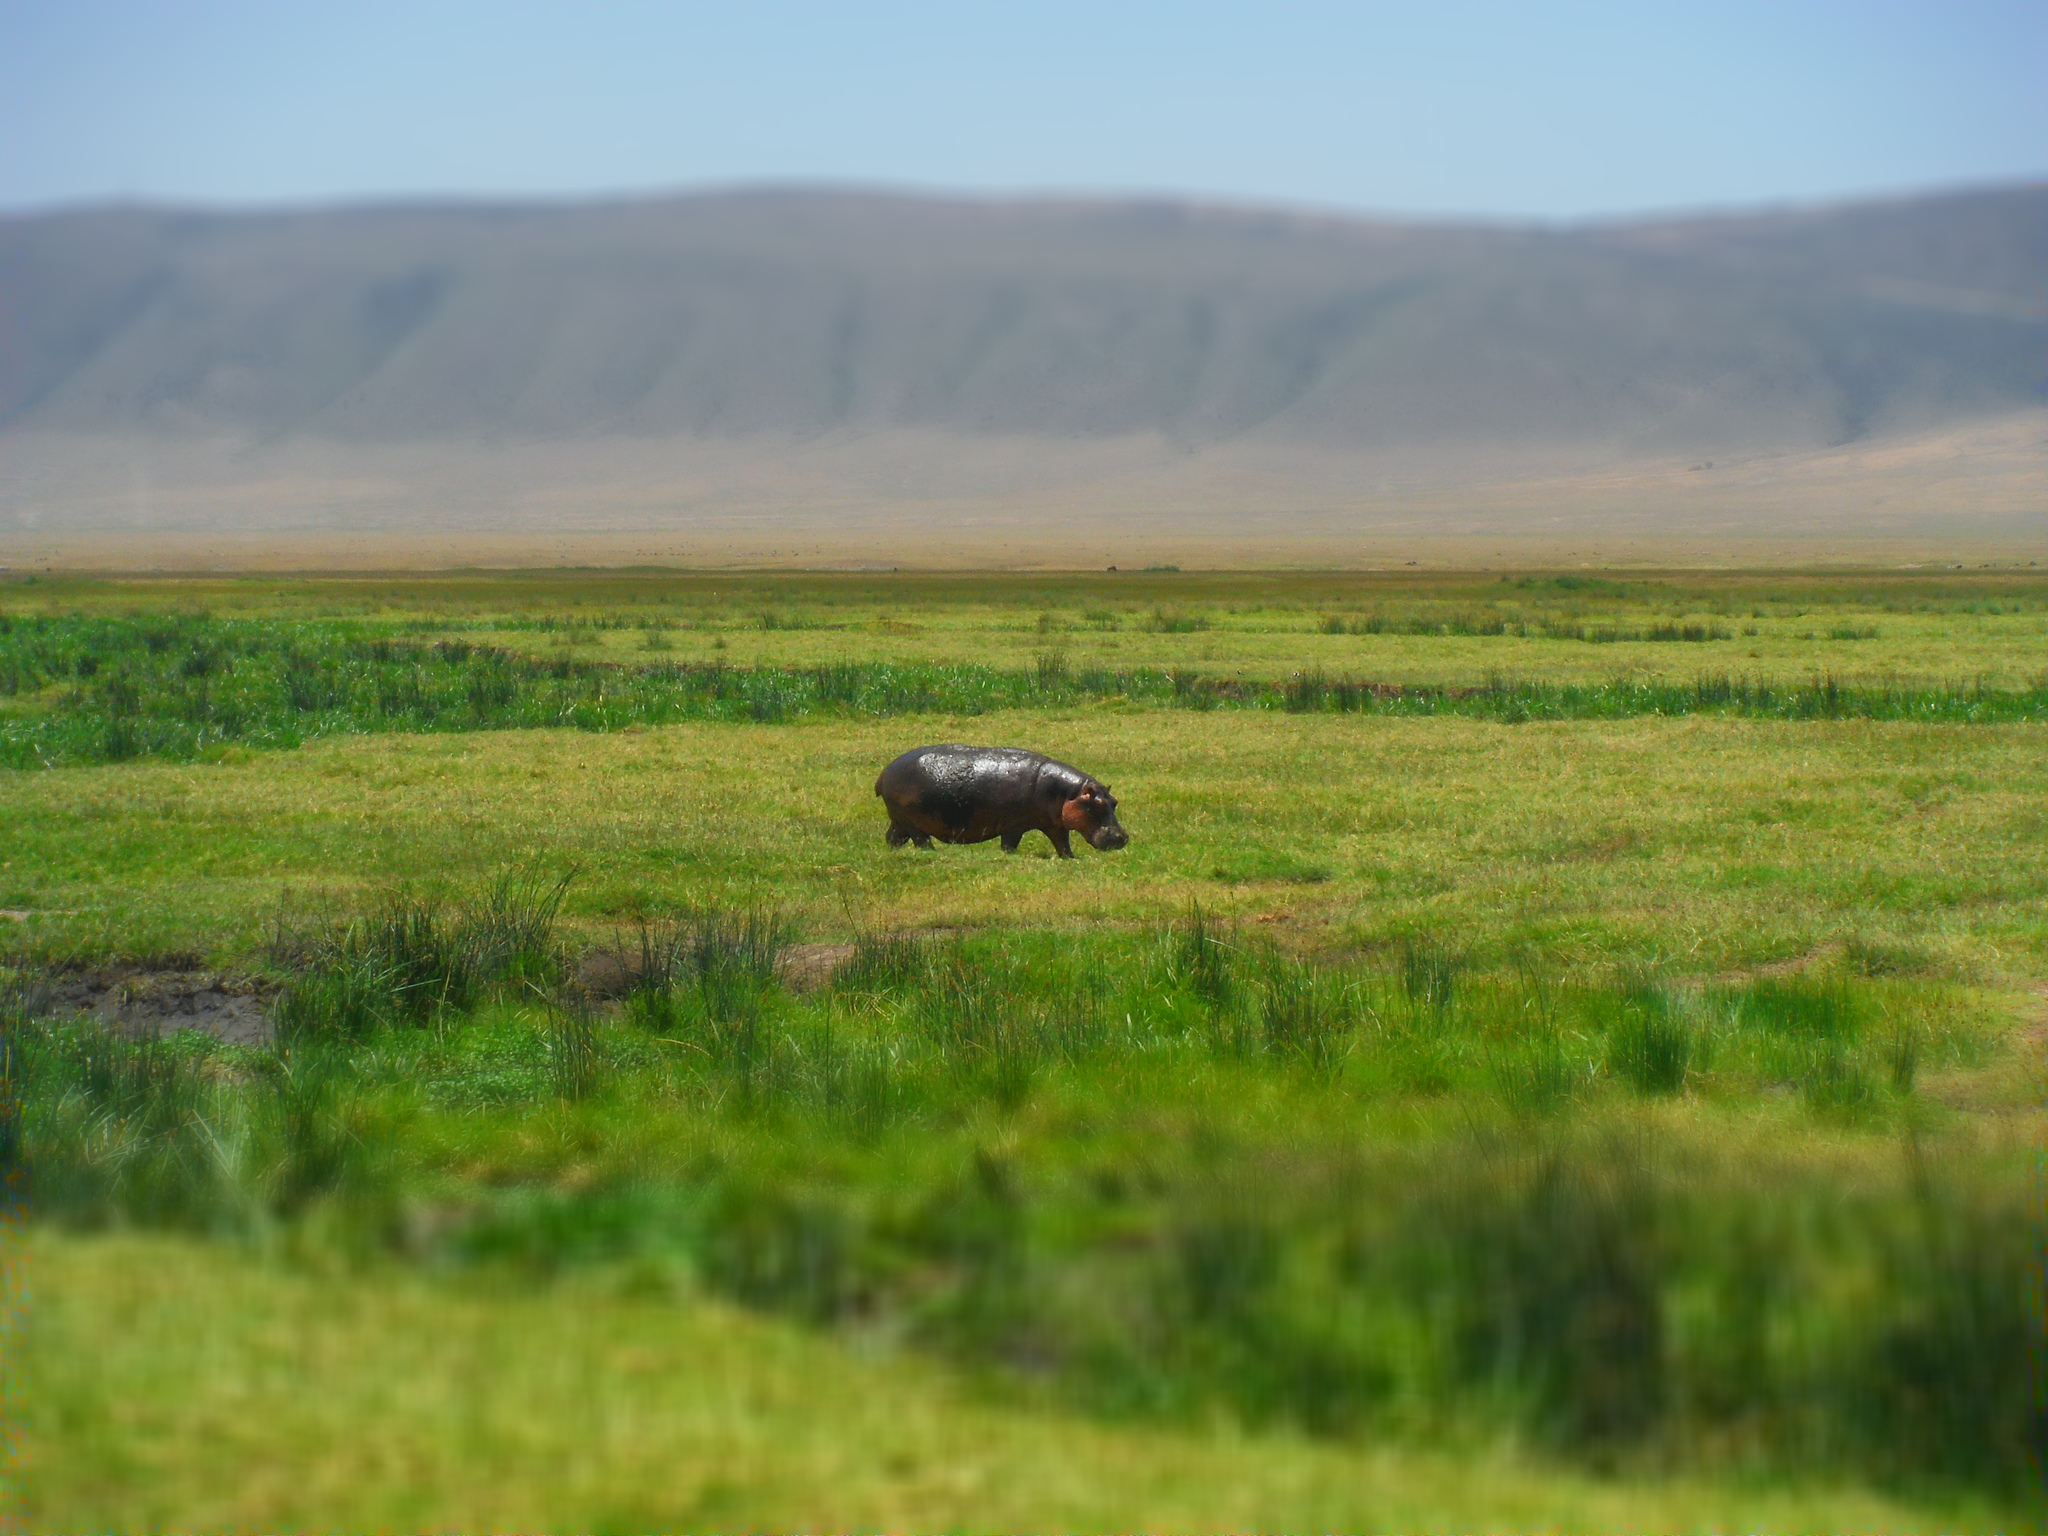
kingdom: Animalia
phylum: Chordata
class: Mammalia
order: Artiodactyla
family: Hippopotamidae
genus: Hippopotamus
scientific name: Hippopotamus amphibius
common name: Common hippopotamus
